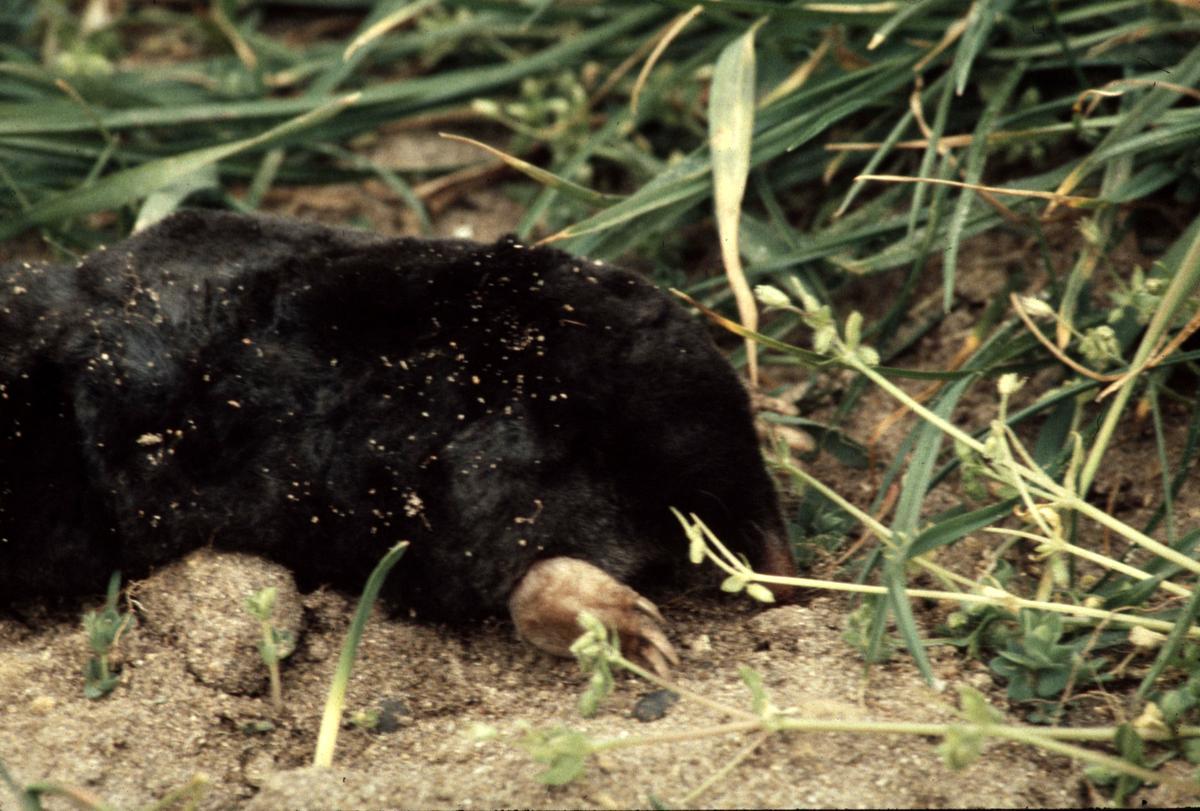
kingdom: Animalia
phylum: Chordata
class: Mammalia
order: Soricomorpha
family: Talpidae
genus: Talpa
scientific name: Talpa europaea
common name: European mole
